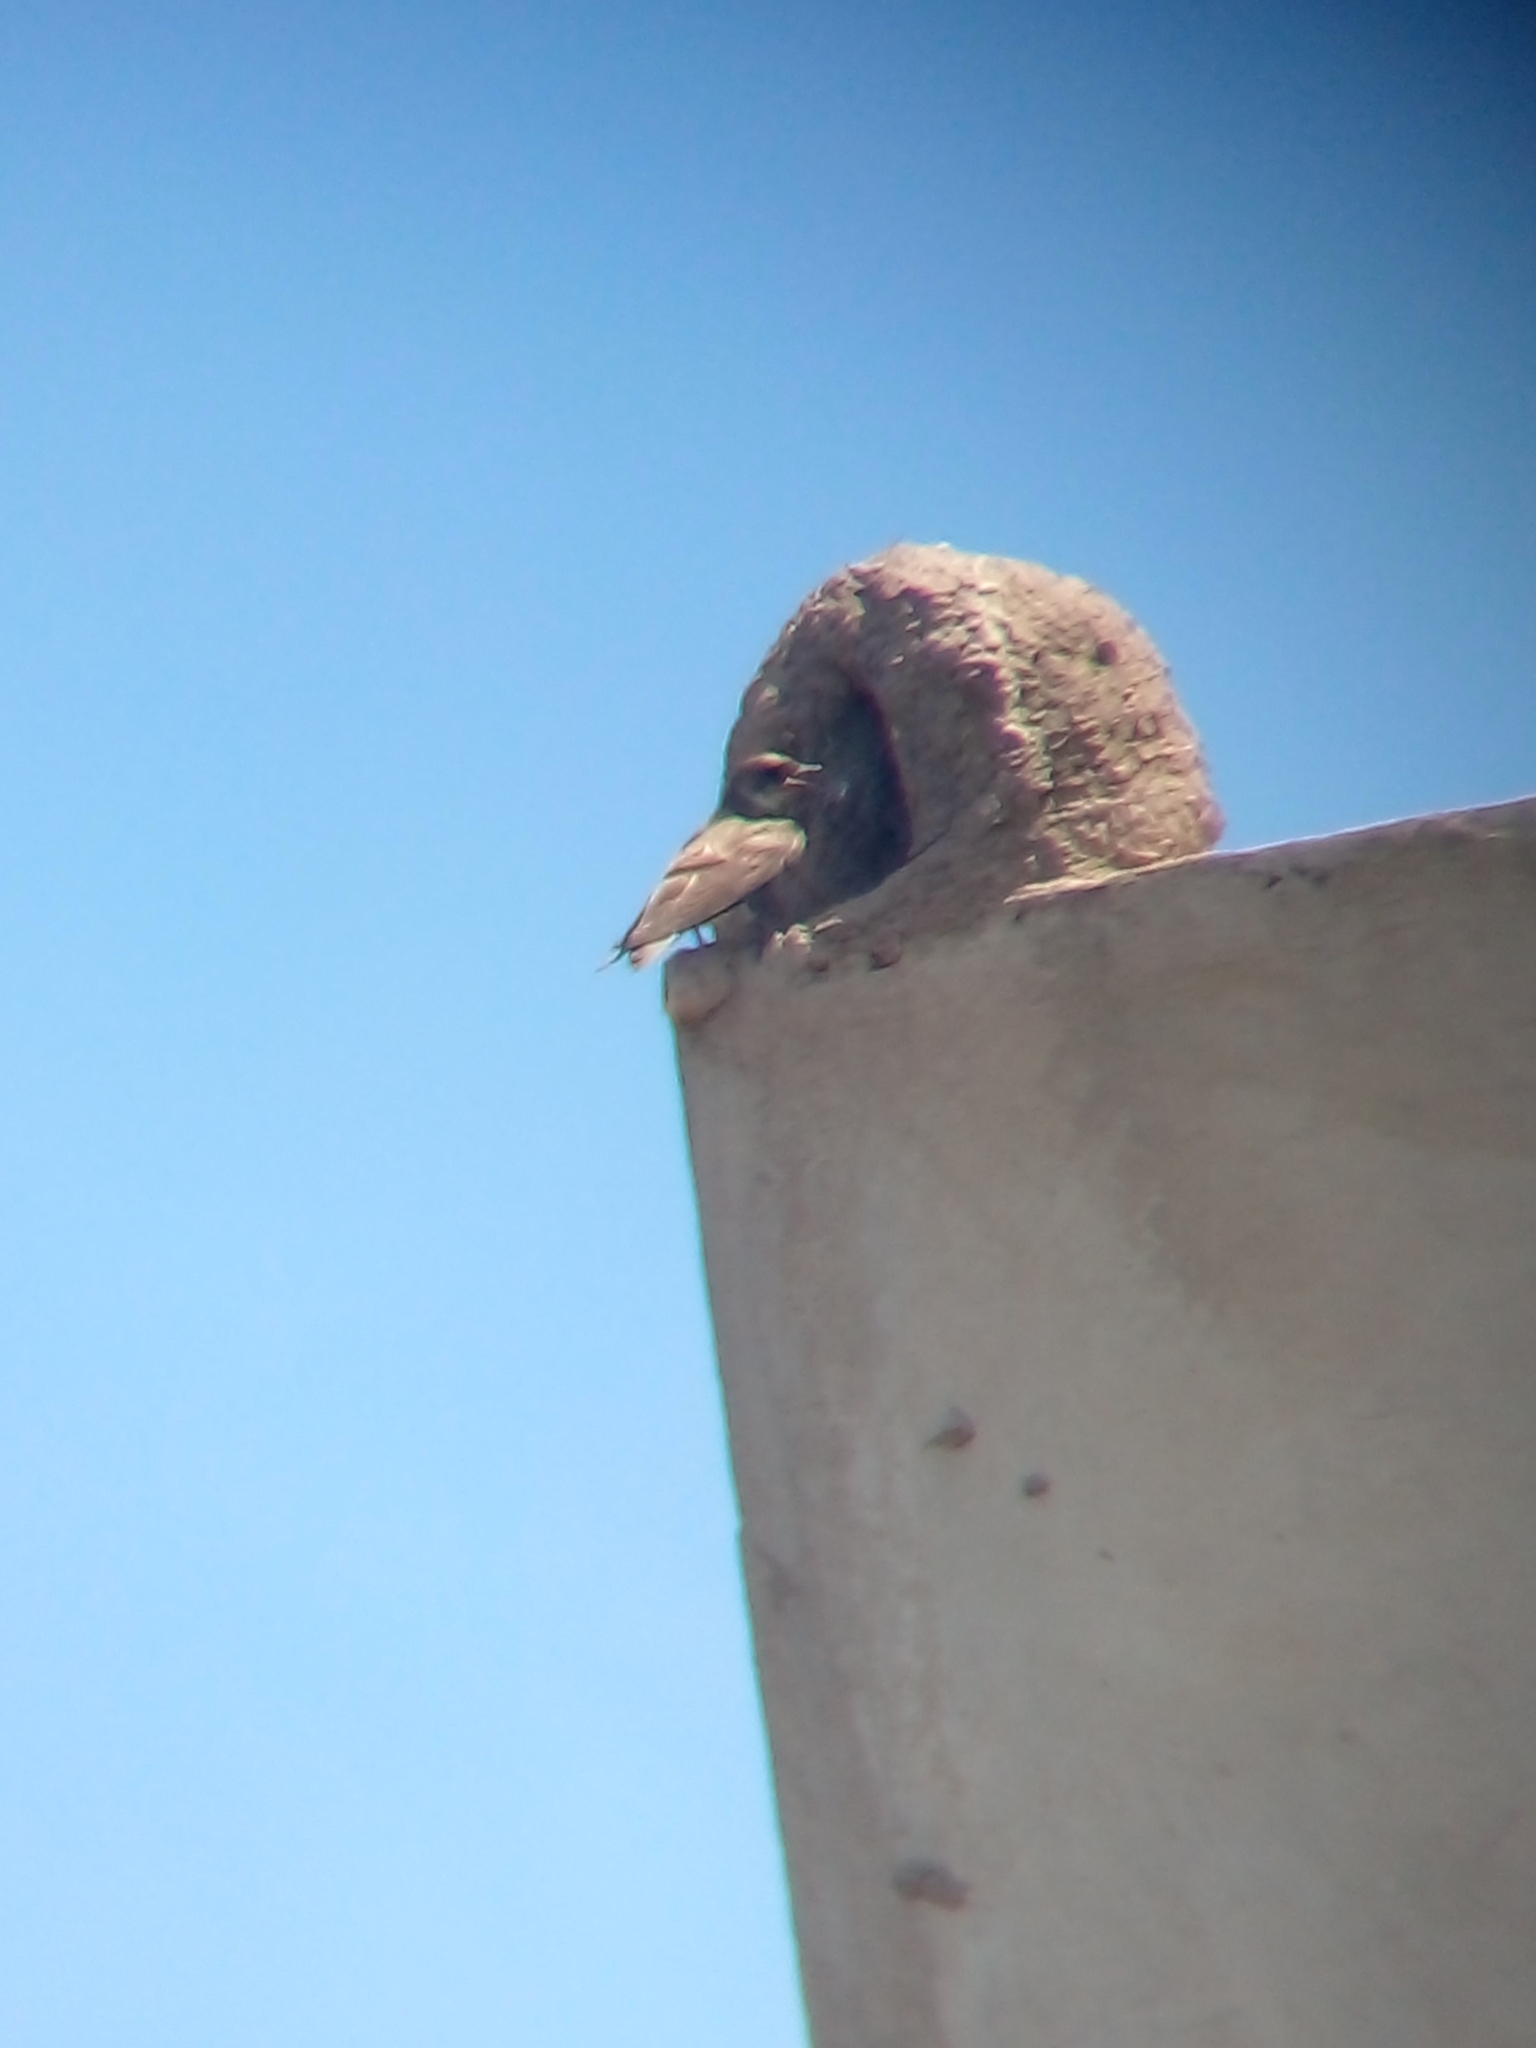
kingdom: Animalia
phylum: Chordata
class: Aves
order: Passeriformes
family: Hirundinidae
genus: Progne
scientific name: Progne tapera
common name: Brown-chested martin
